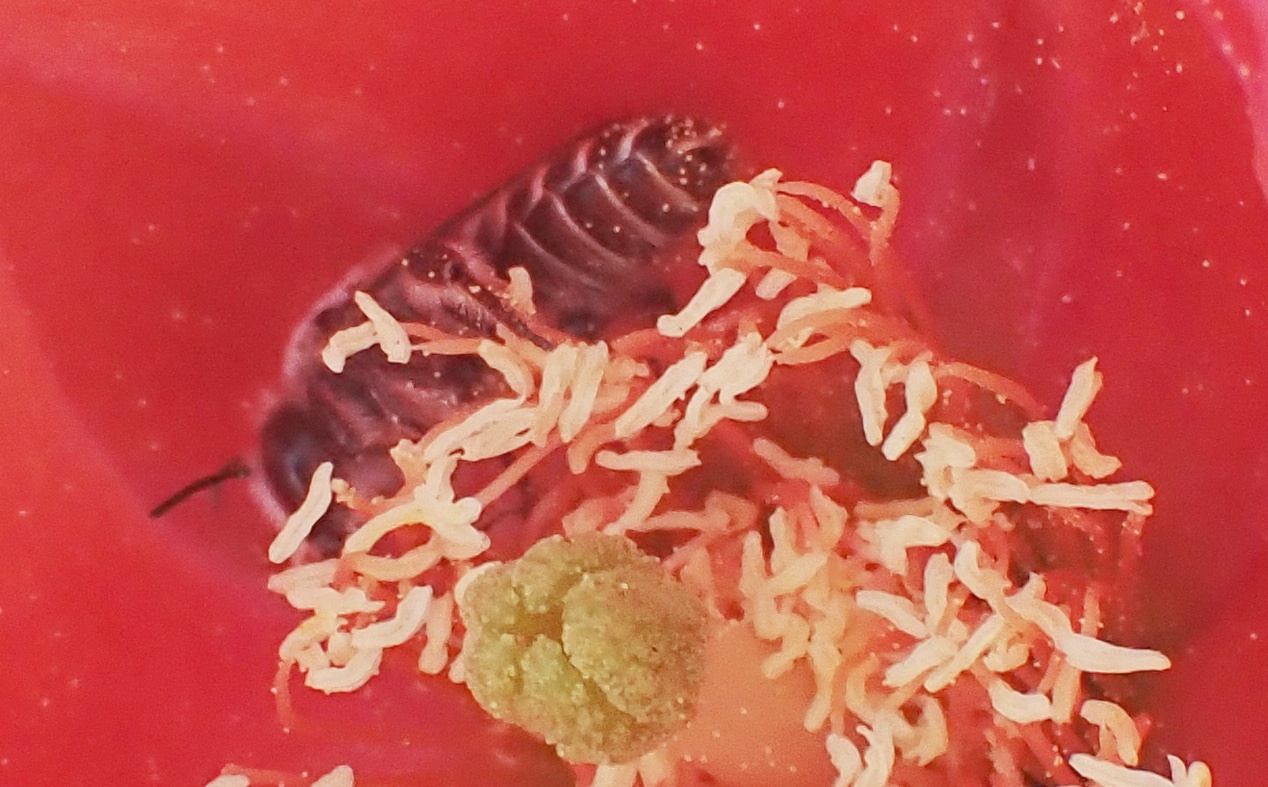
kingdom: Animalia
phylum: Arthropoda
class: Insecta
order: Hymenoptera
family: Megachilidae
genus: Lithurgopsis
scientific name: Lithurgopsis apicalis
